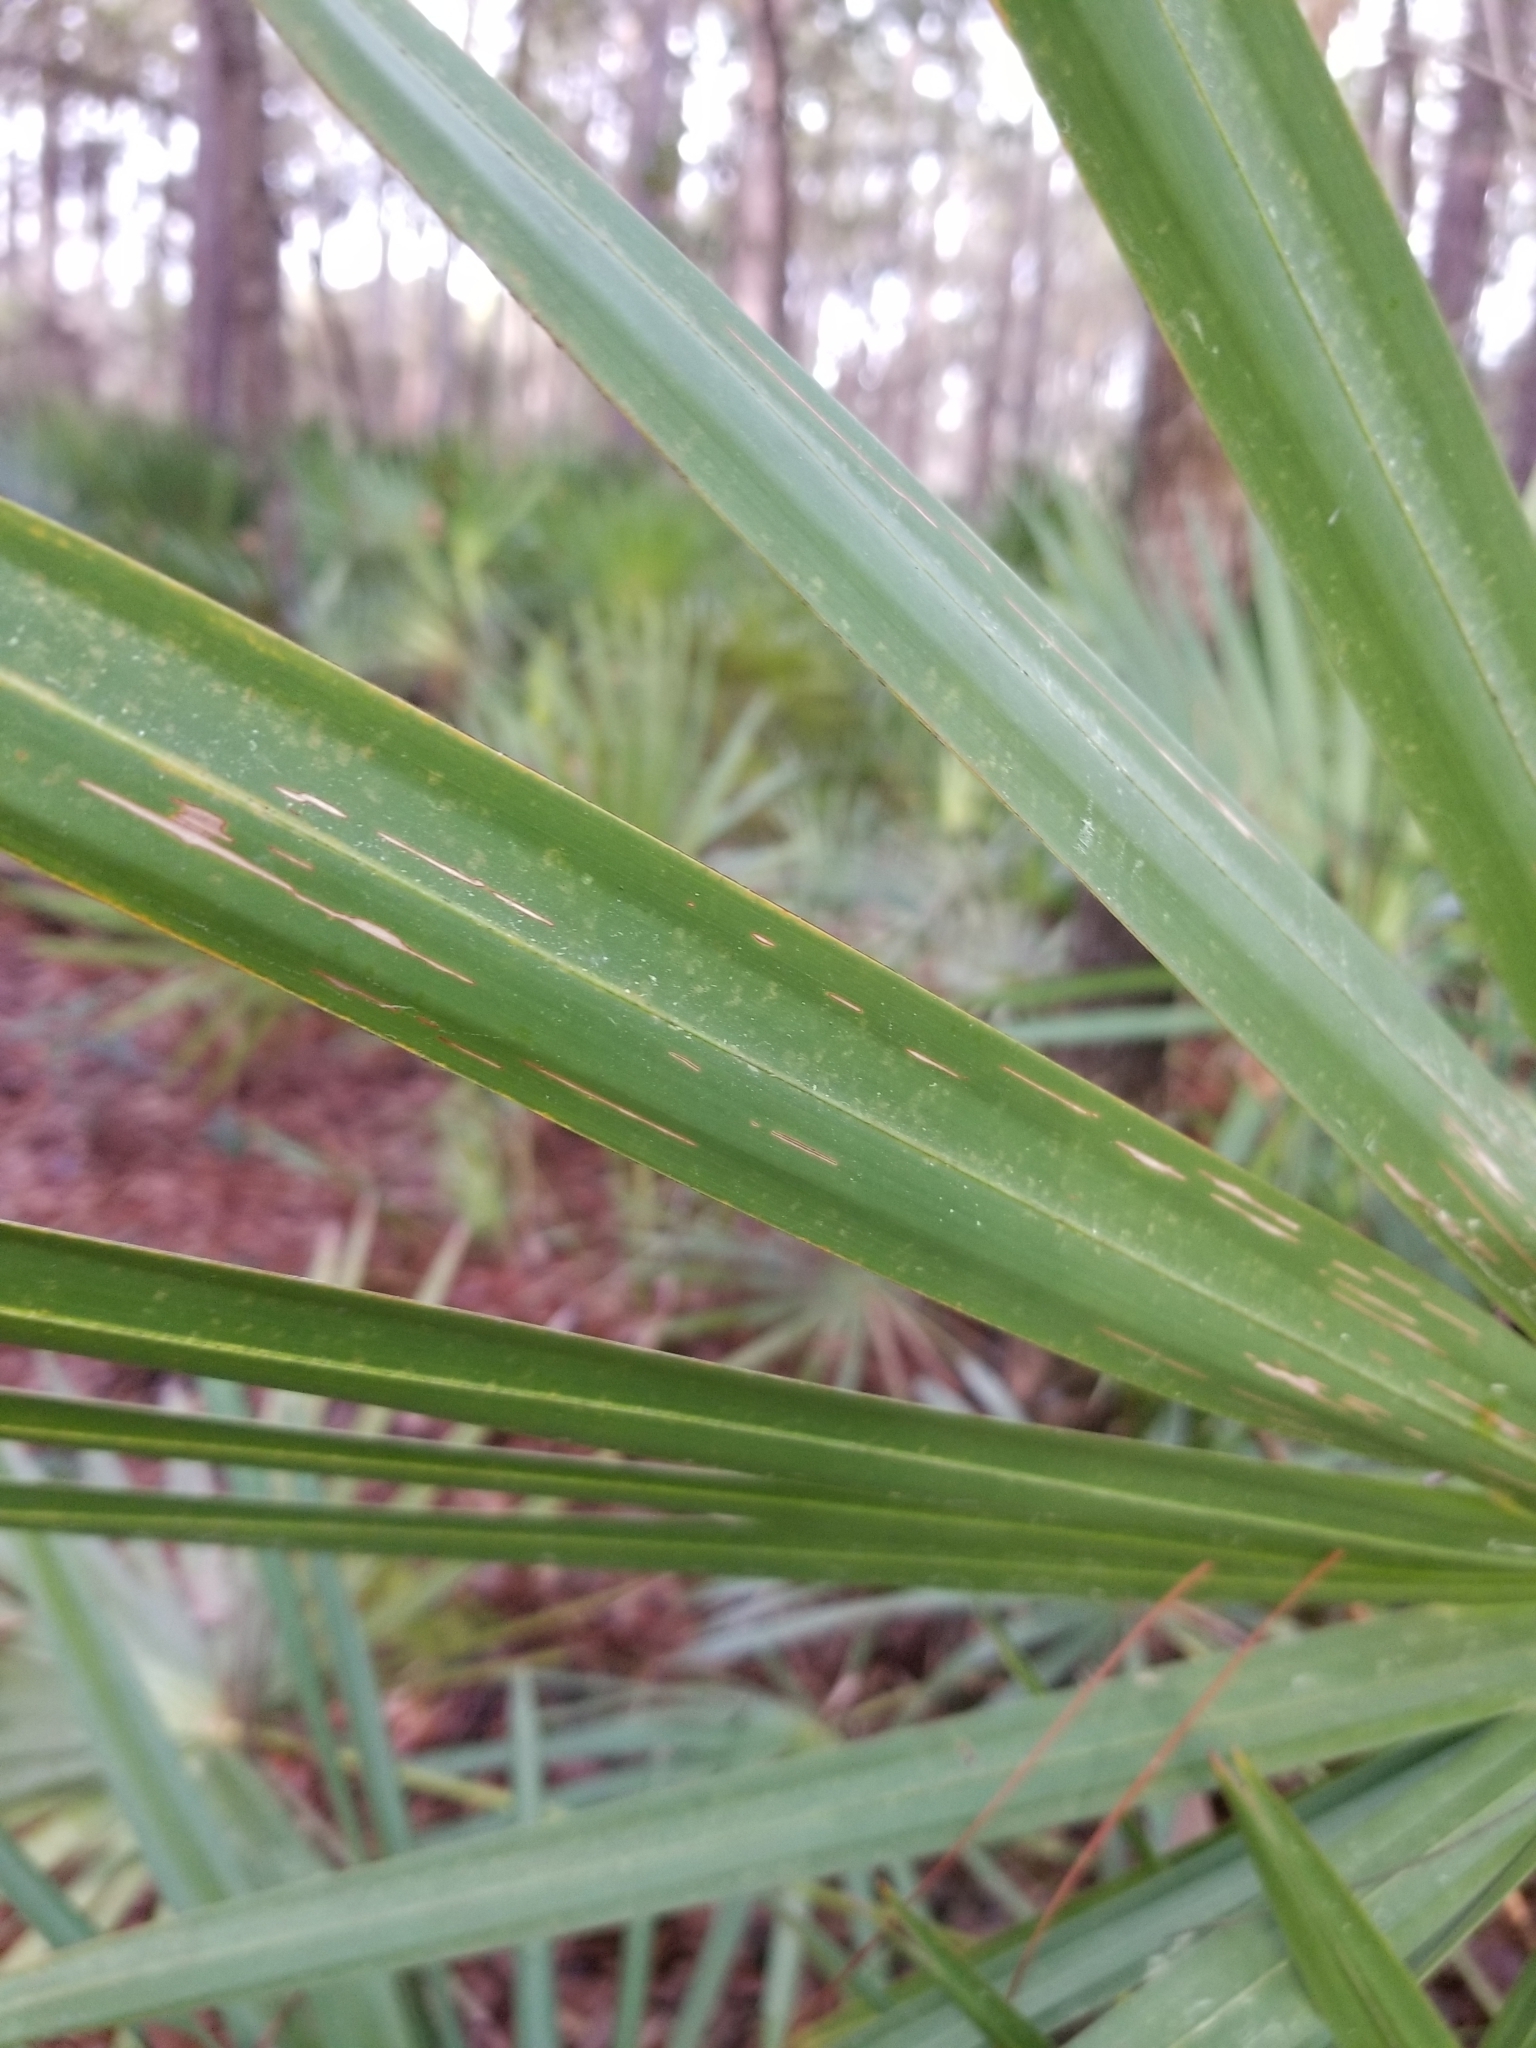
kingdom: Plantae
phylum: Tracheophyta
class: Liliopsida
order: Arecales
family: Arecaceae
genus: Serenoa
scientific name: Serenoa repens
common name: Saw-palmetto
